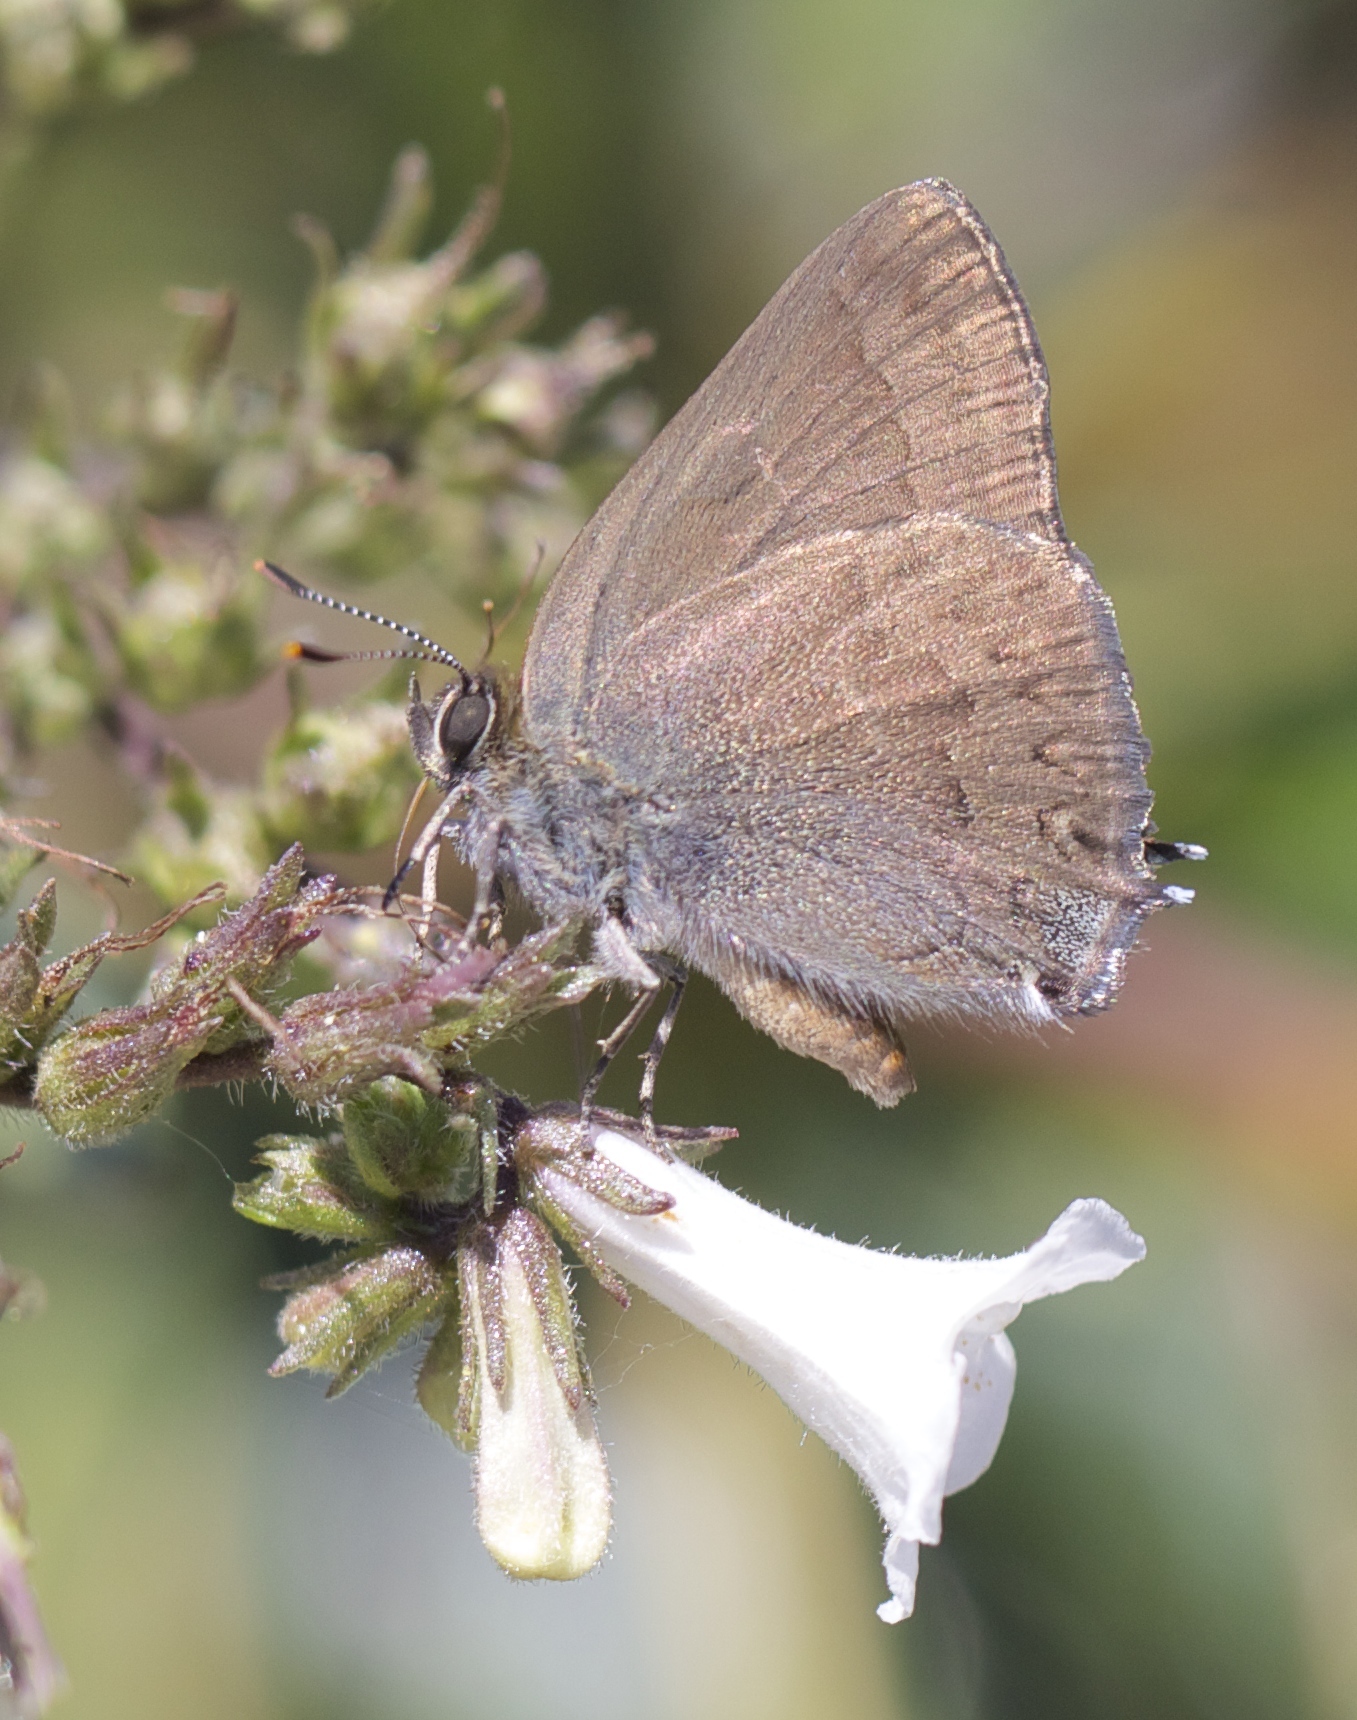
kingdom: Animalia
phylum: Arthropoda
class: Insecta
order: Lepidoptera
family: Lycaenidae
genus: Strymon
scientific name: Strymon saepium
